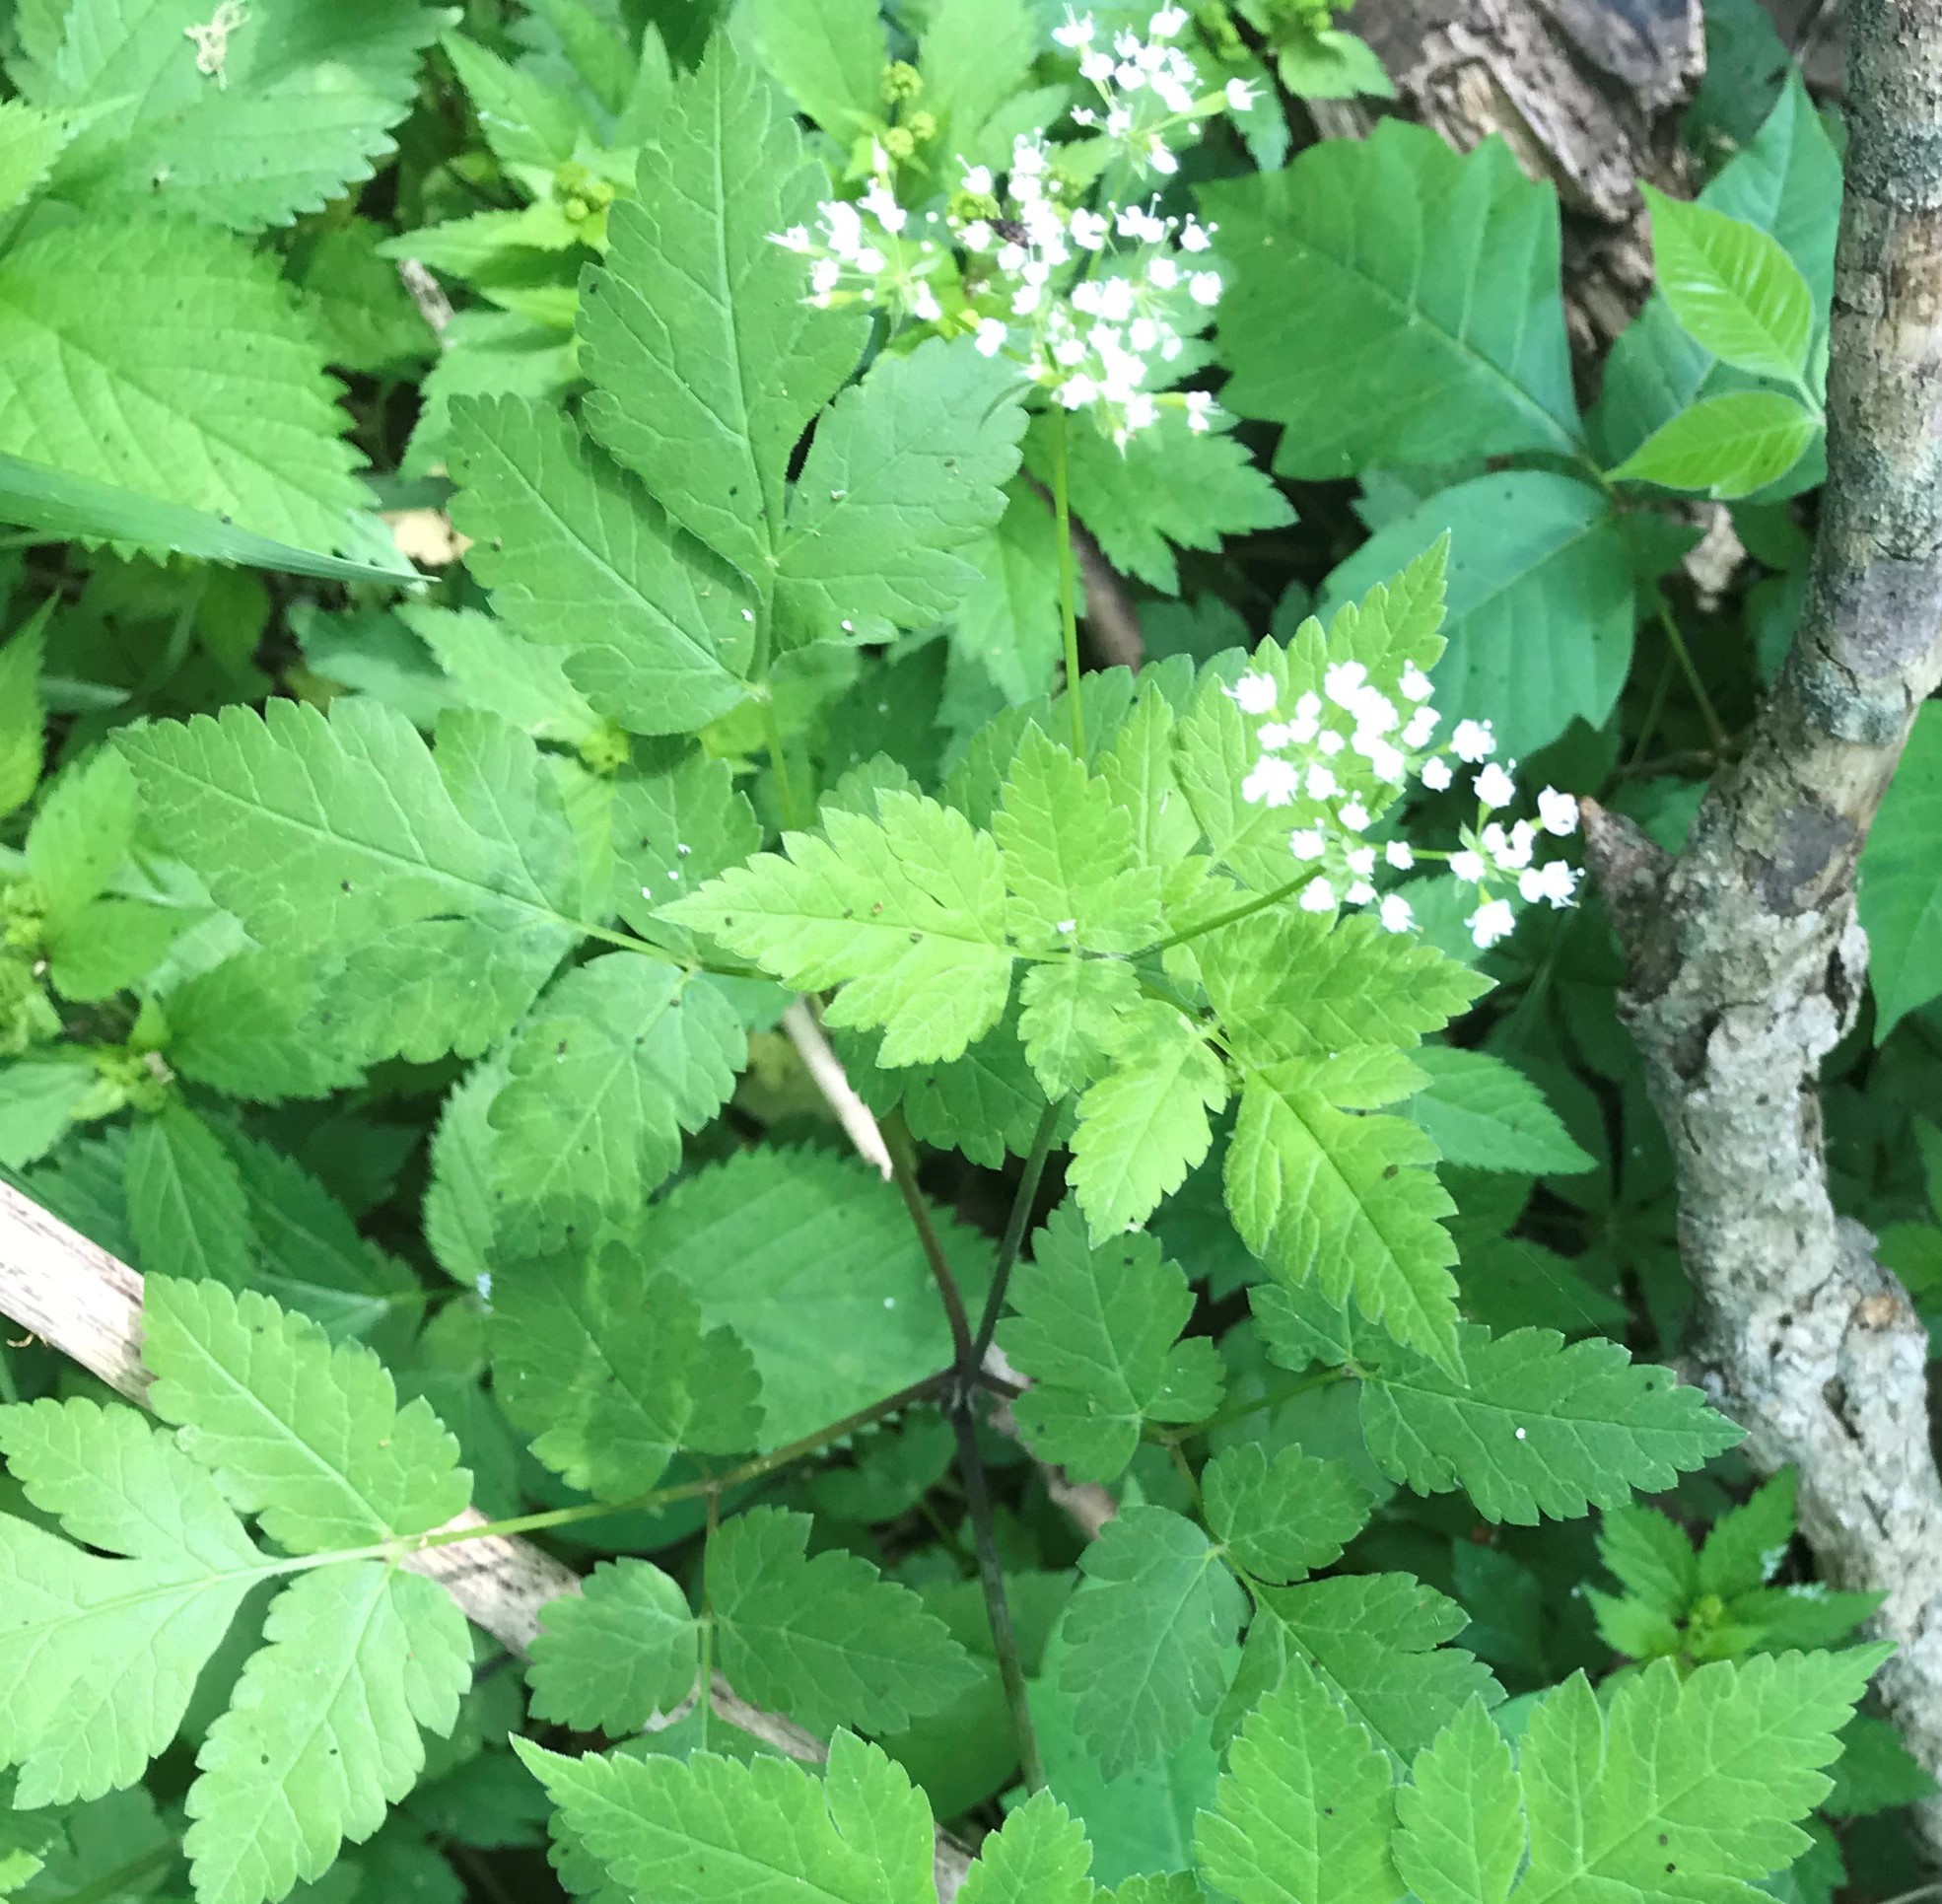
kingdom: Plantae
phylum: Tracheophyta
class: Magnoliopsida
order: Apiales
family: Apiaceae
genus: Osmorhiza
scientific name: Osmorhiza longistylis
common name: Smooth sweet cicely
